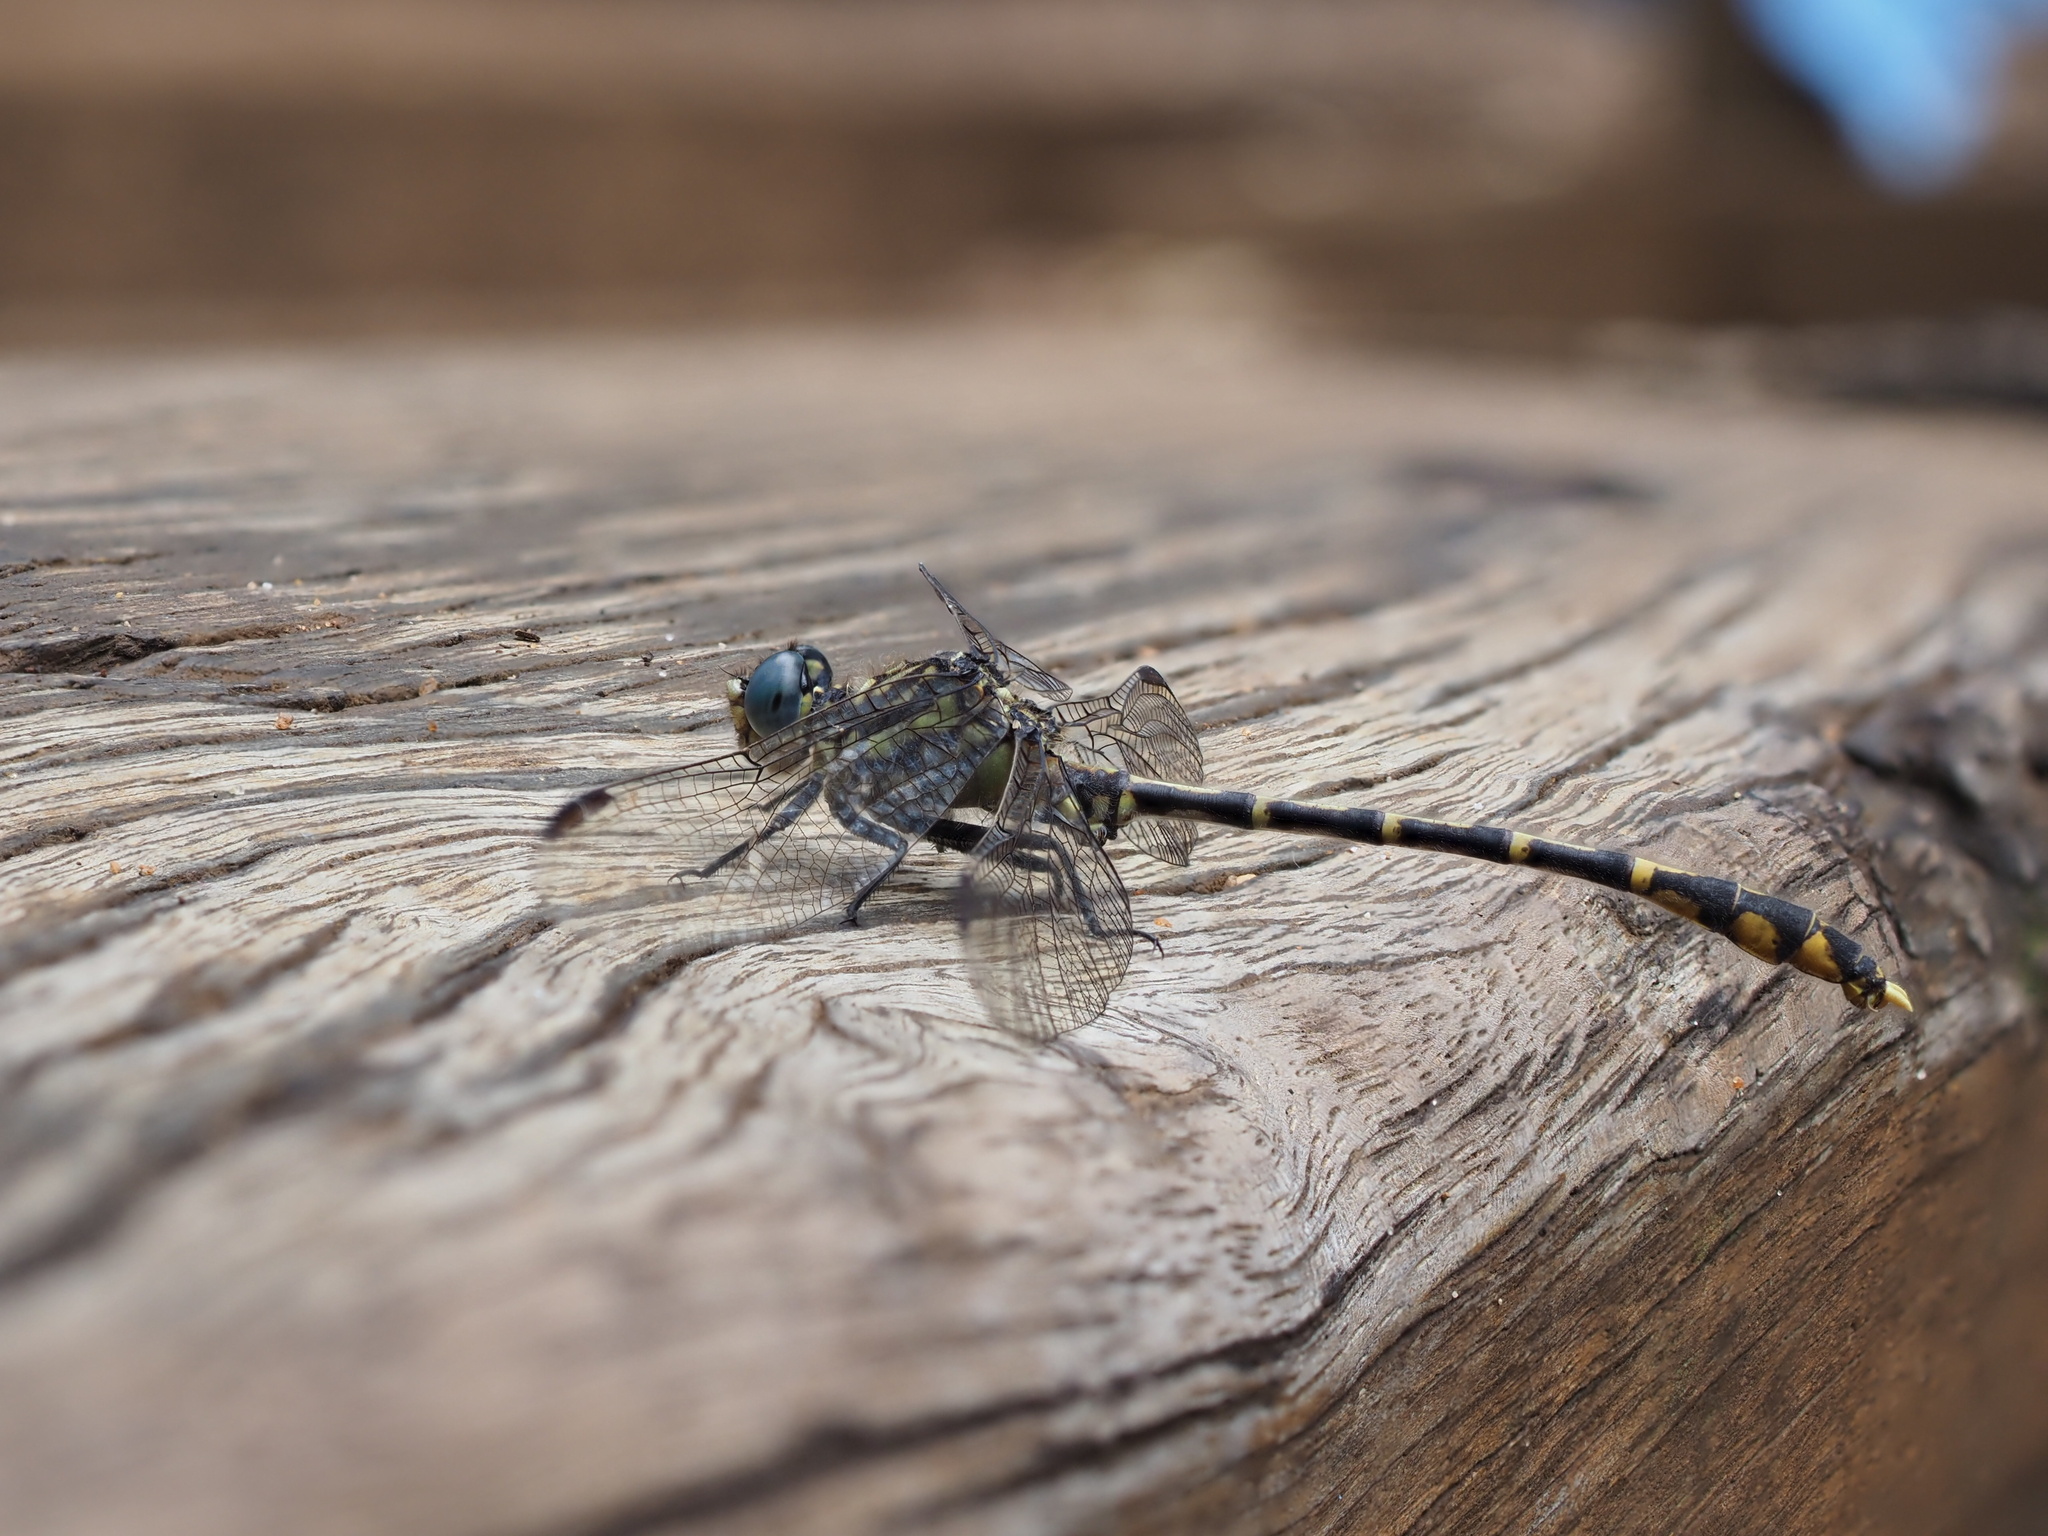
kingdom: Animalia
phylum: Arthropoda
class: Insecta
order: Odonata
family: Gomphidae
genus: Austrogomphus
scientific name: Austrogomphus collaris
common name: Western inland hunter
